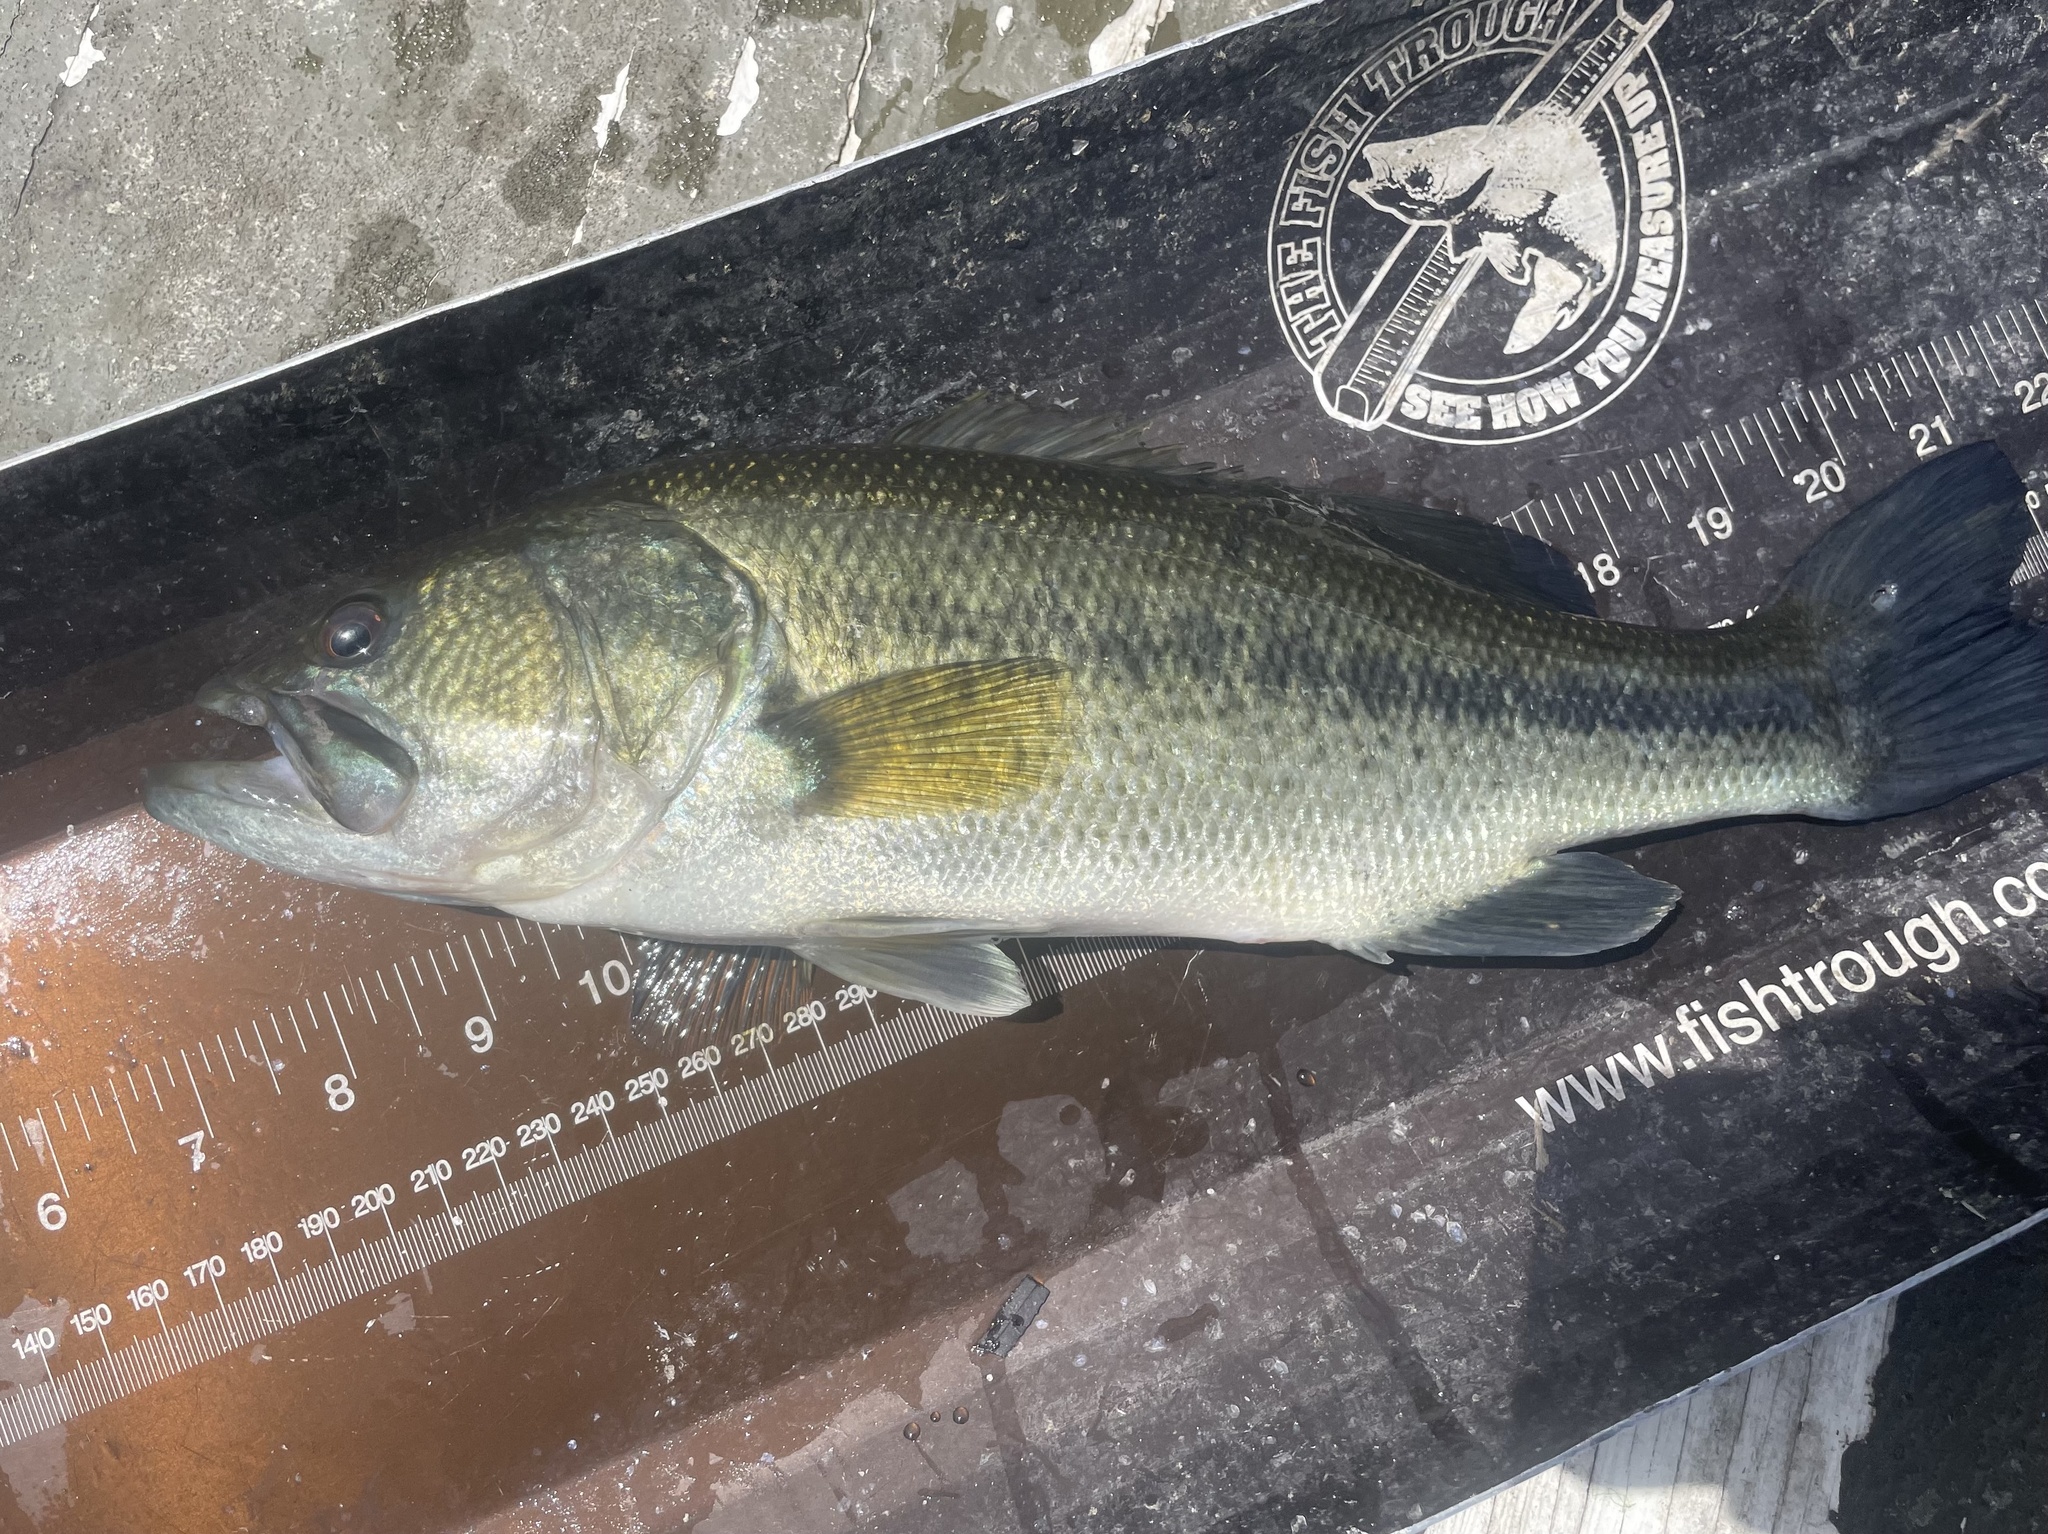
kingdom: Animalia
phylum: Chordata
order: Perciformes
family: Centrarchidae
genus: Micropterus
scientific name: Micropterus
